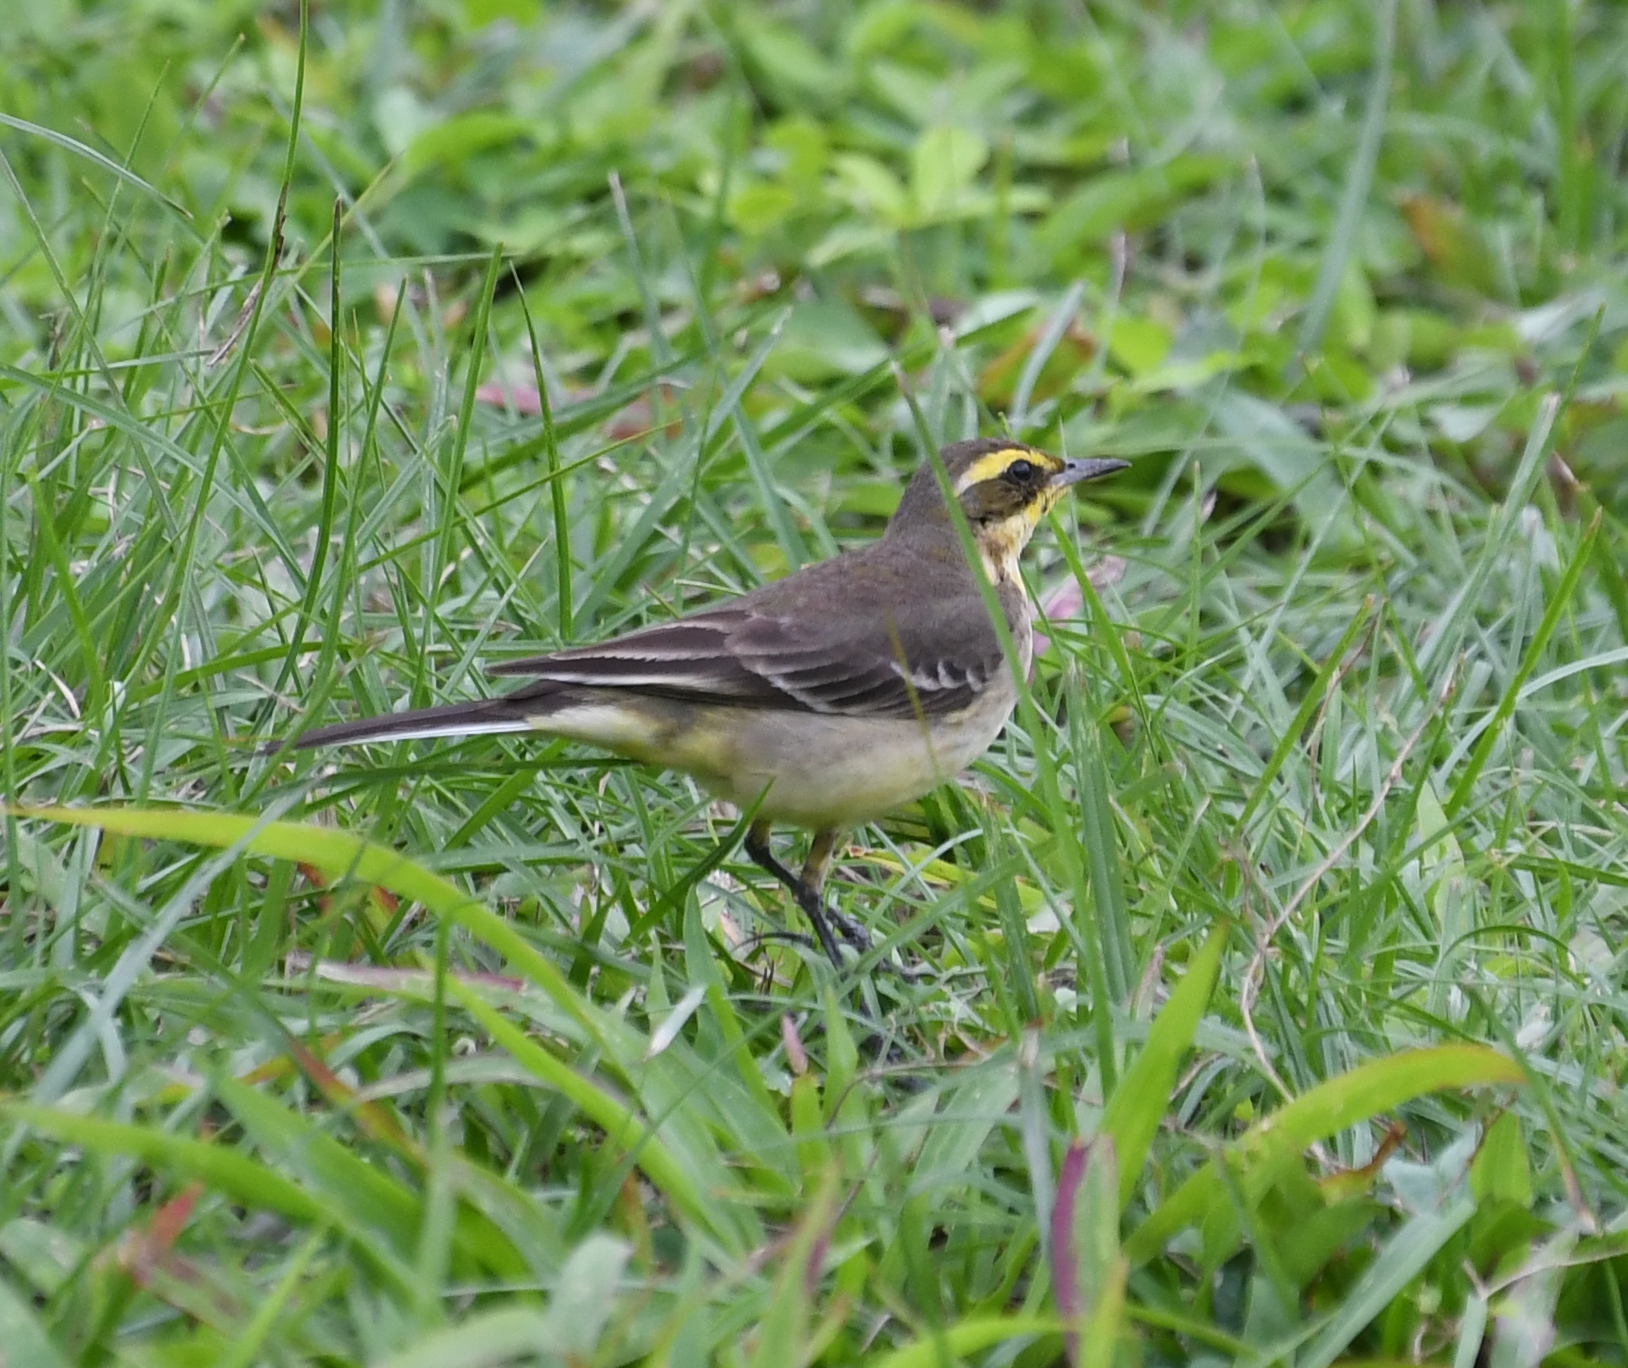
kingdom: Animalia
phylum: Chordata
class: Aves
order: Passeriformes
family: Motacillidae
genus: Motacilla
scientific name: Motacilla tschutschensis
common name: Eastern yellow wagtail
